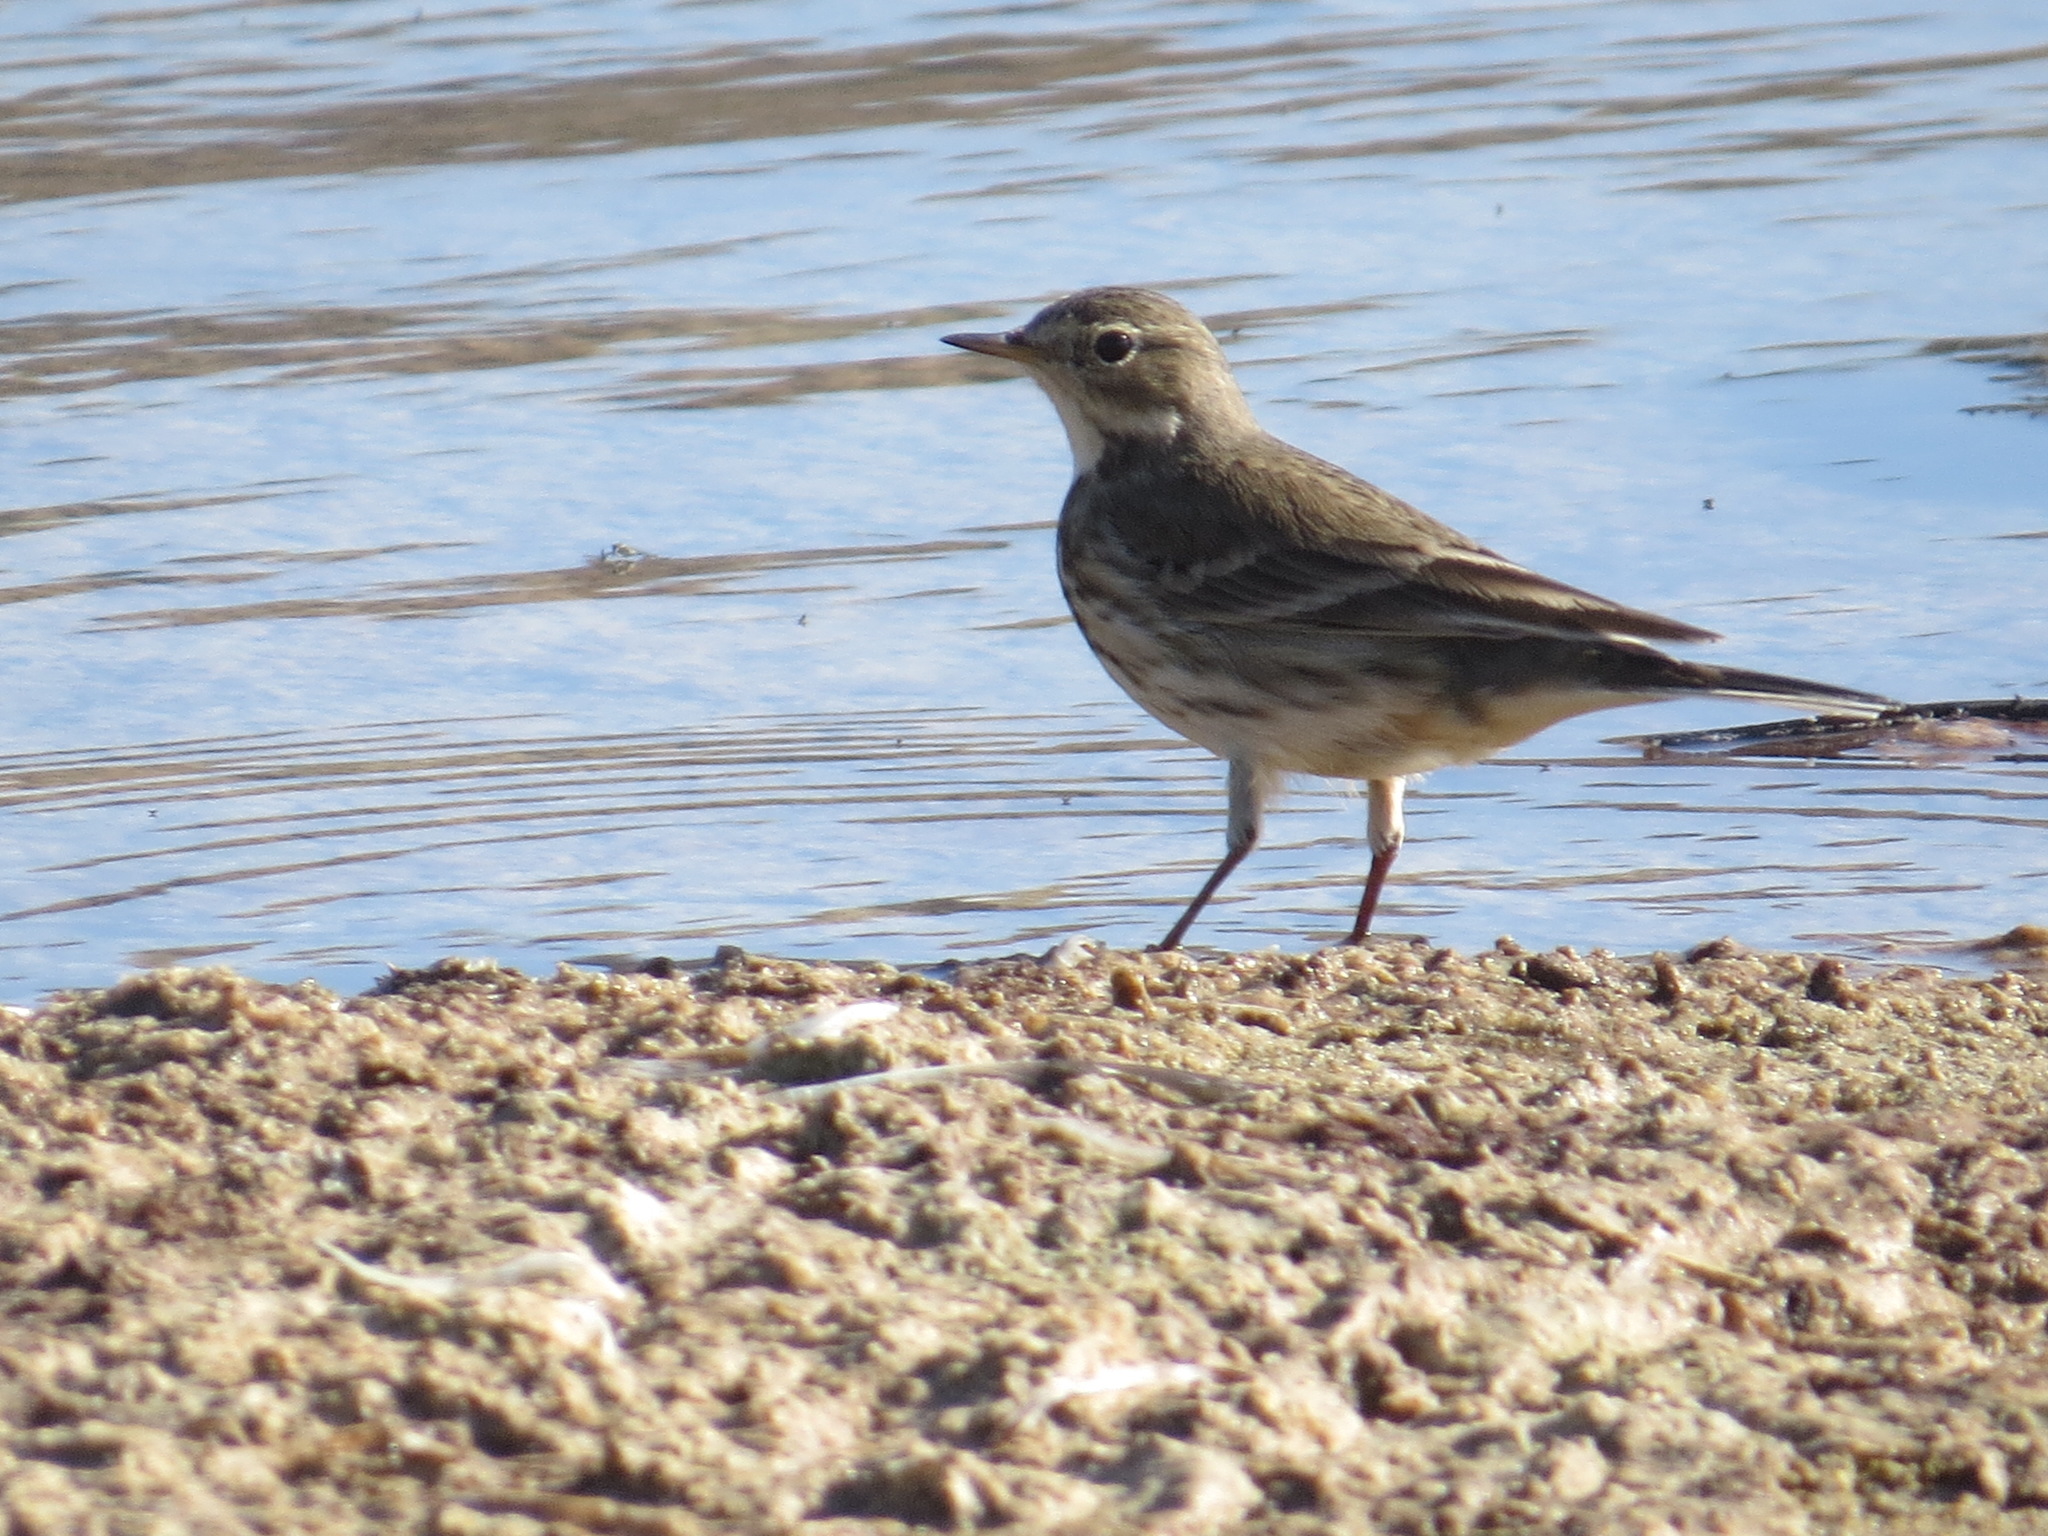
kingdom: Animalia
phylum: Chordata
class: Aves
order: Passeriformes
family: Motacillidae
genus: Anthus
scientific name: Anthus rubescens
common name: Buff-bellied pipit
